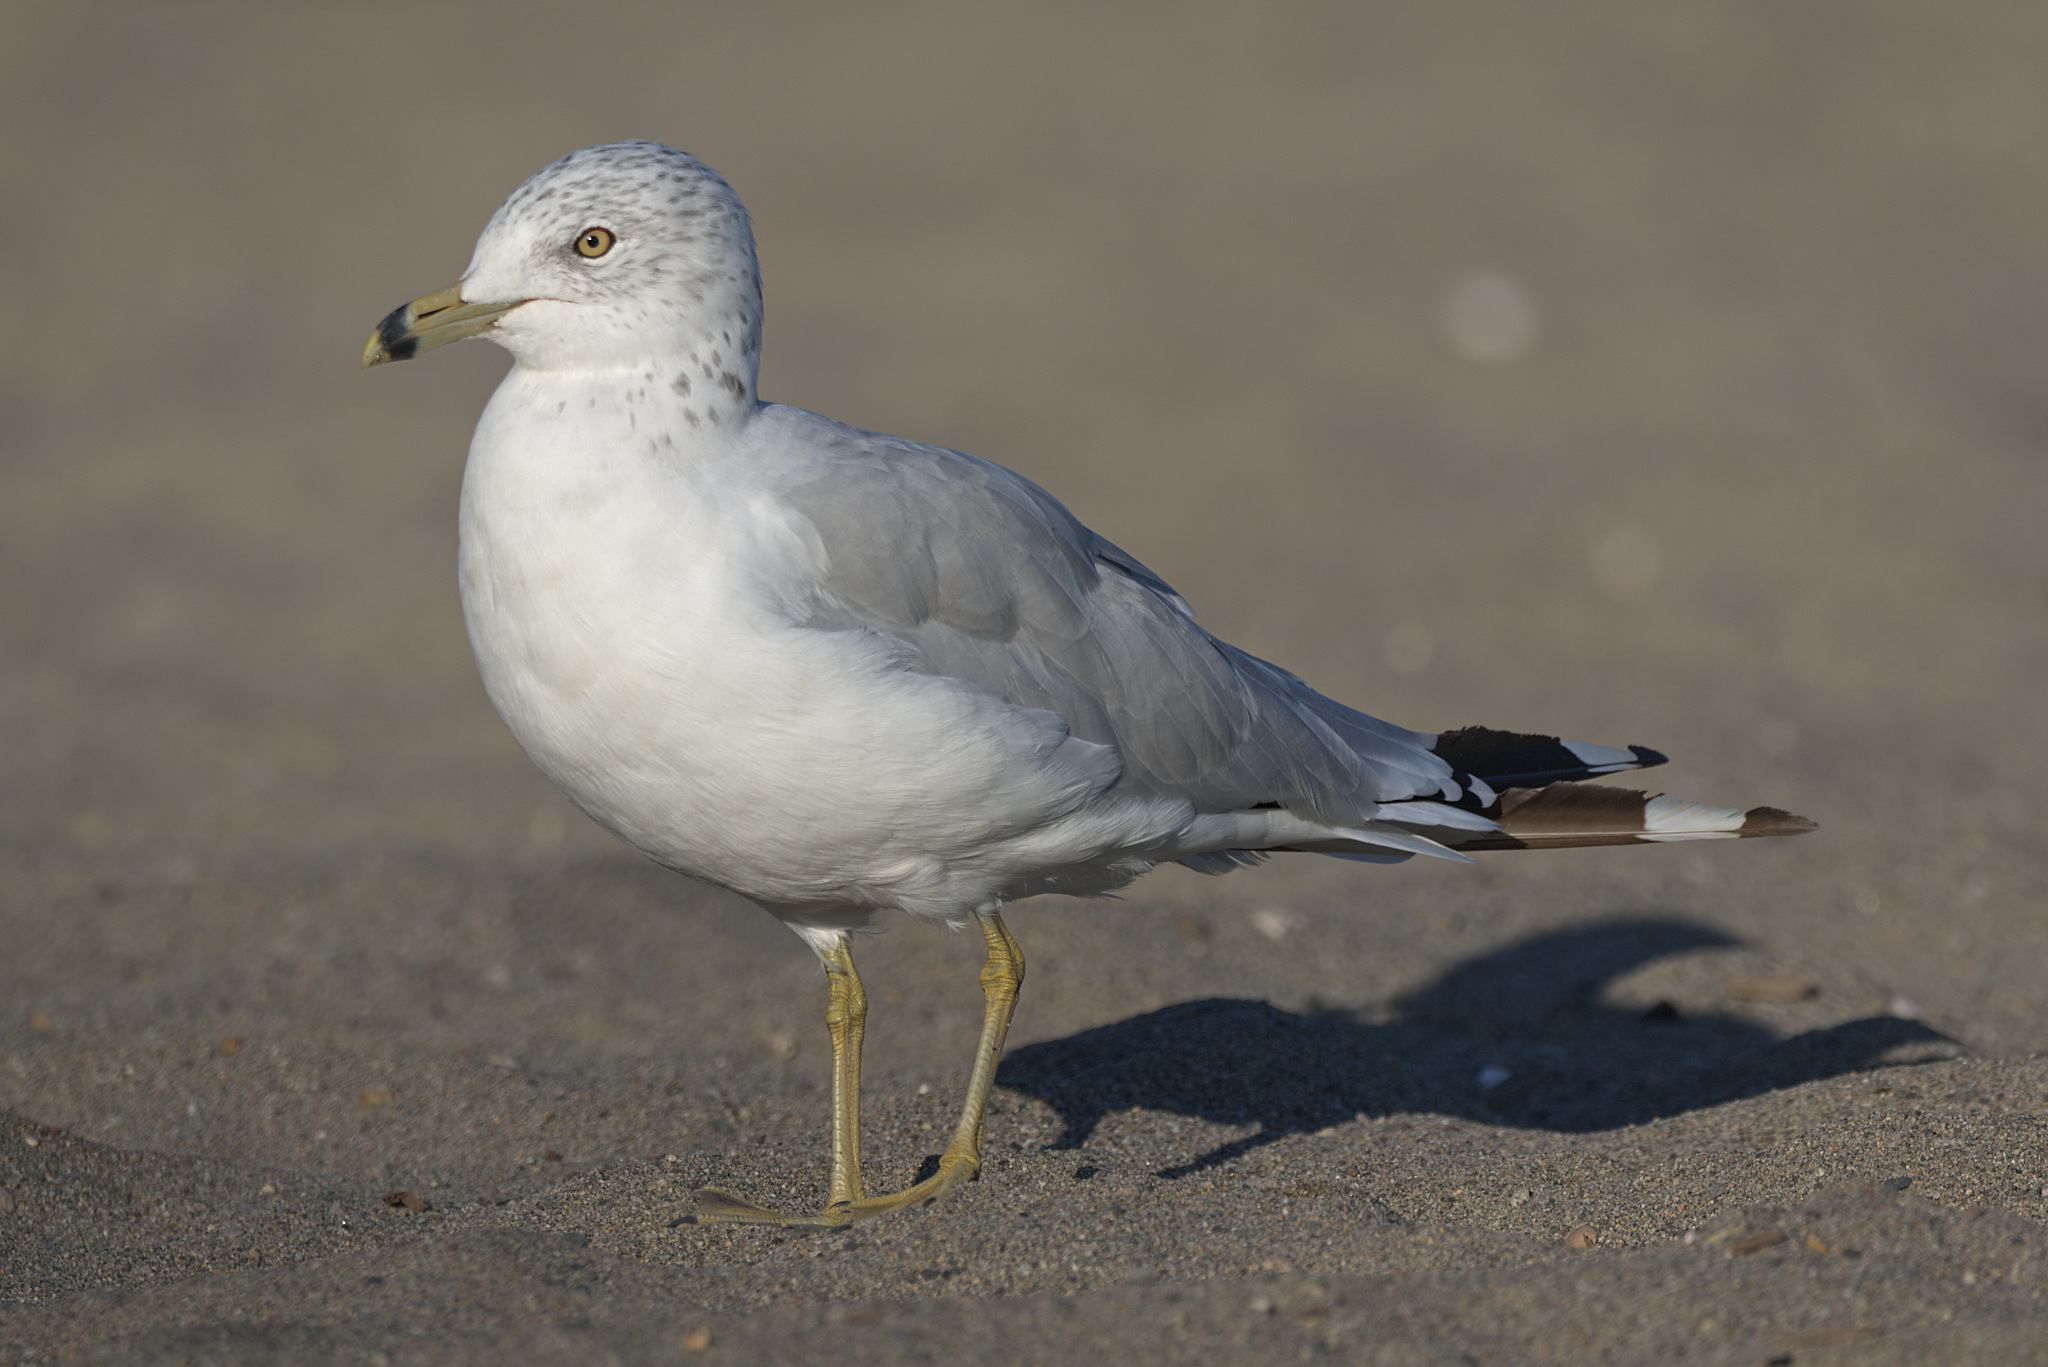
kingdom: Animalia
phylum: Chordata
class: Aves
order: Charadriiformes
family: Laridae
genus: Larus
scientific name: Larus delawarensis
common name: Ring-billed gull
